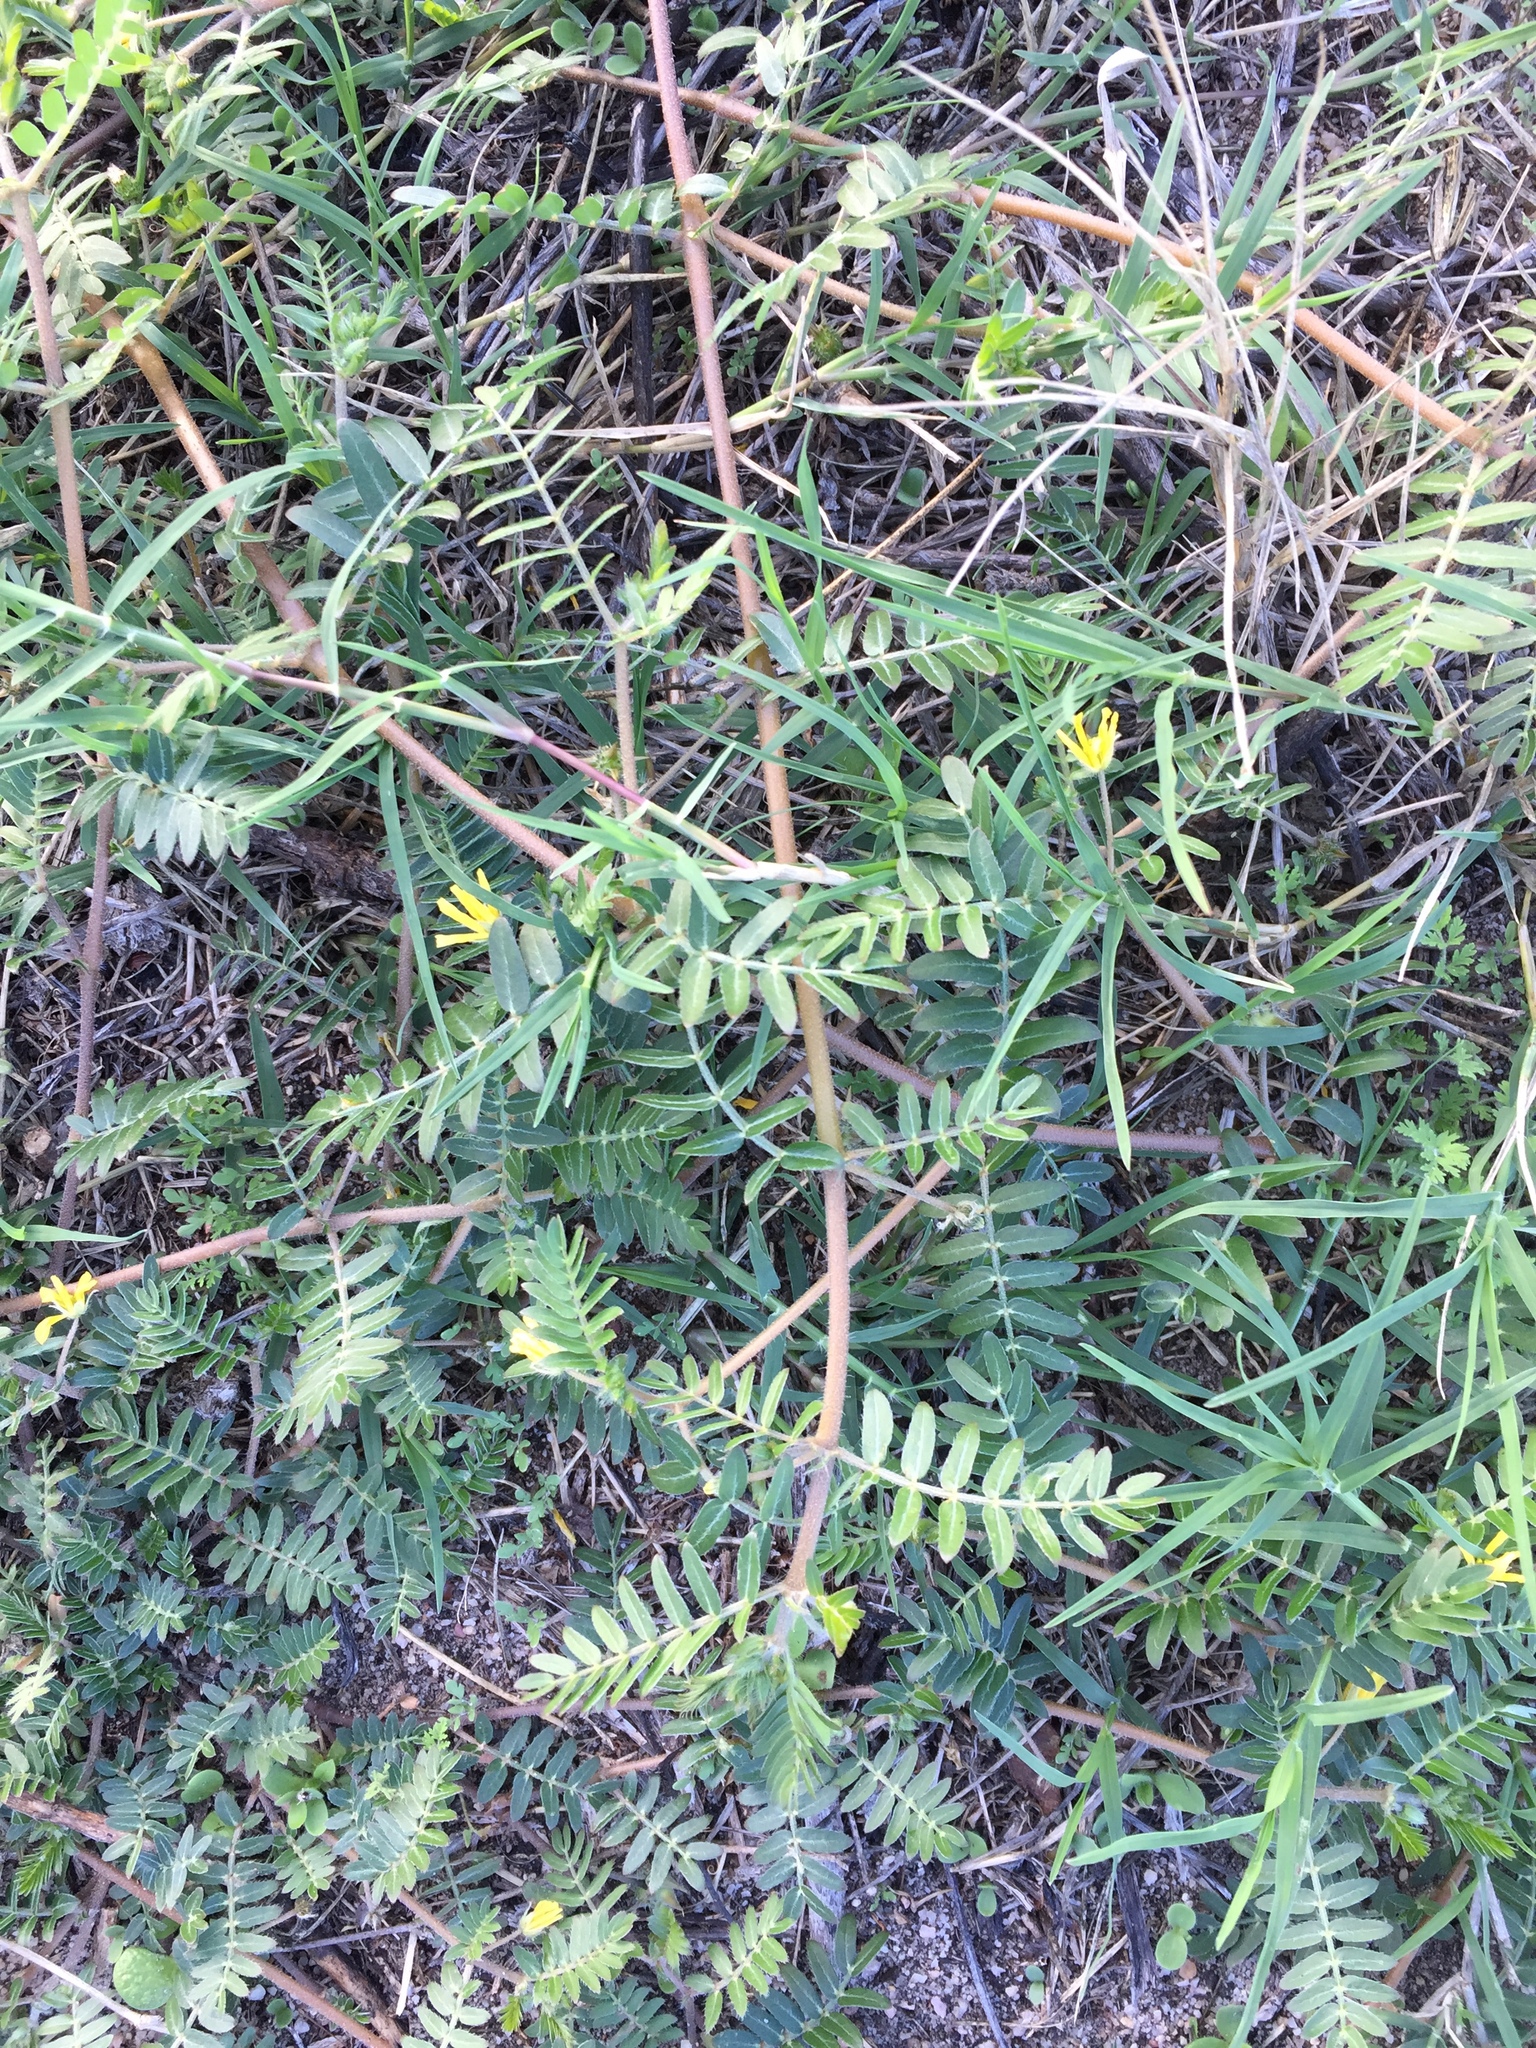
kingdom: Plantae
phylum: Tracheophyta
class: Magnoliopsida
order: Zygophyllales
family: Zygophyllaceae
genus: Tribulus
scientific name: Tribulus terrestris
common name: Puncturevine
